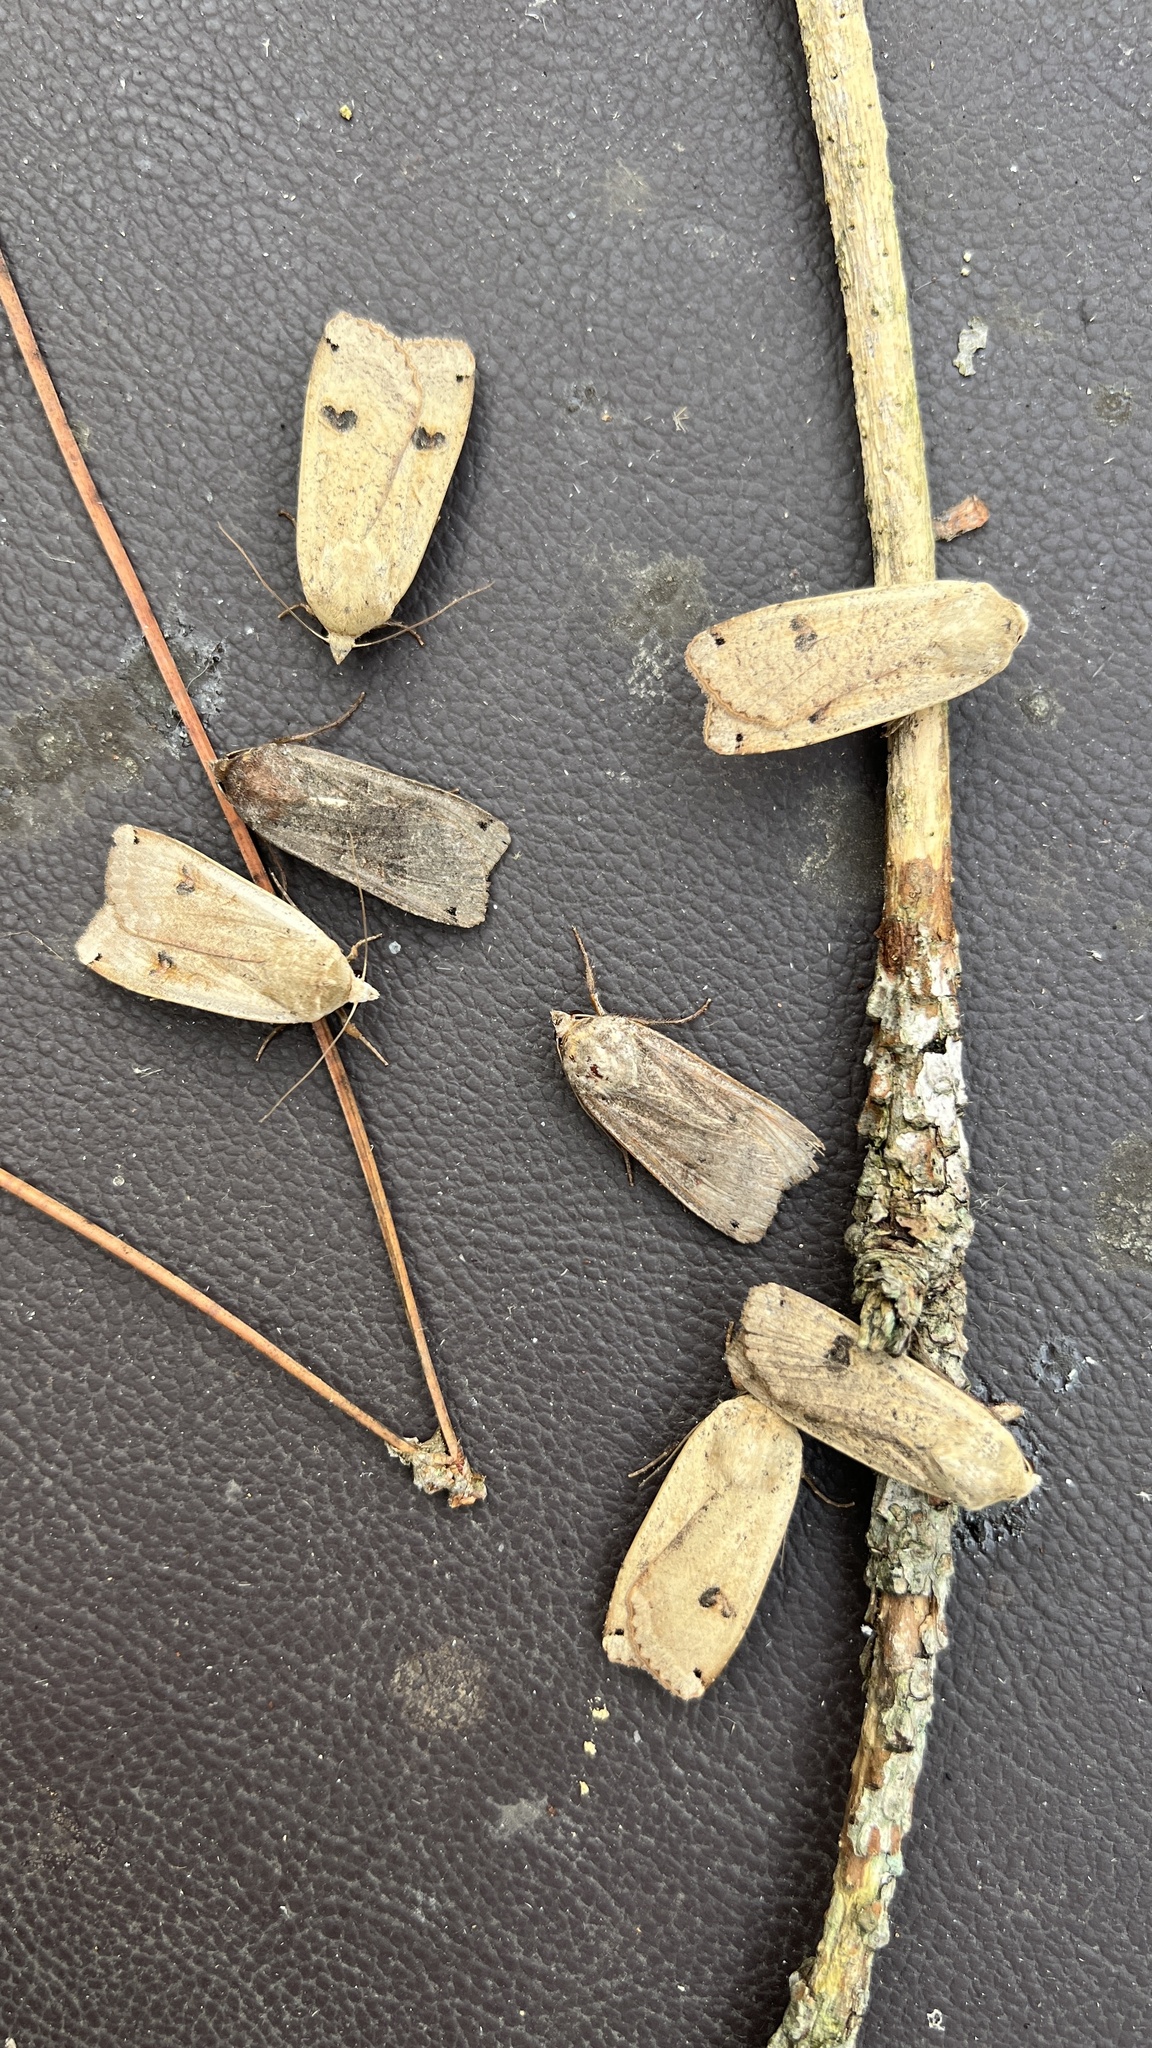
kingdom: Animalia
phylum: Arthropoda
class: Insecta
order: Lepidoptera
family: Noctuidae
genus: Noctua
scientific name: Noctua pronuba
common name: Large yellow underwing
